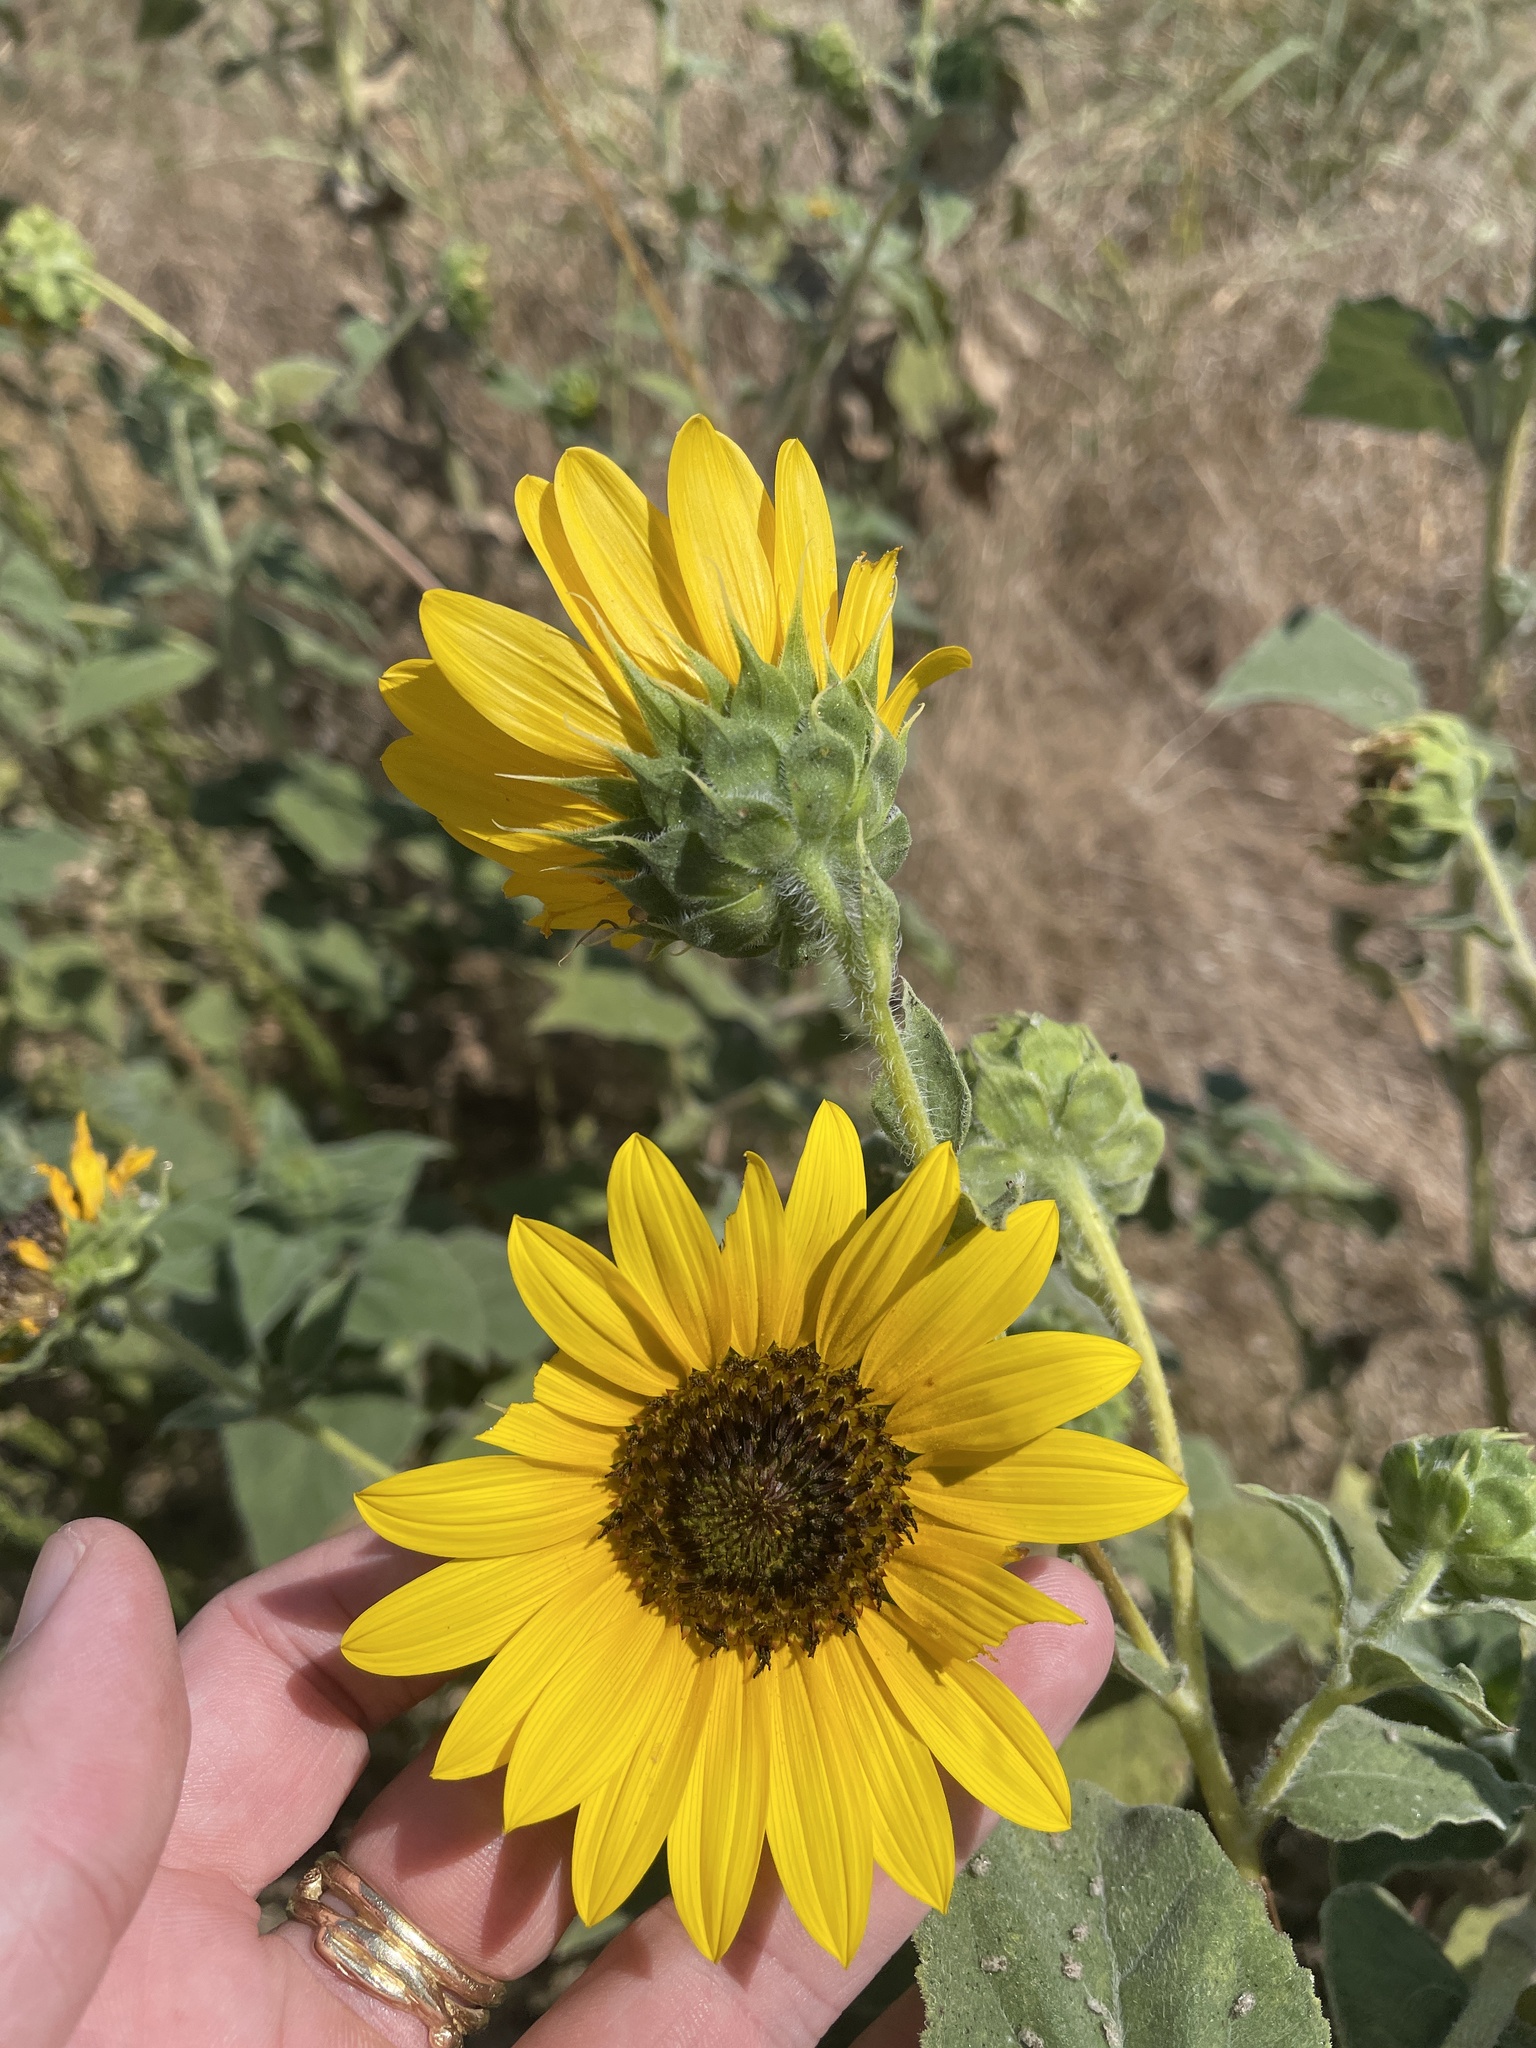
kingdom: Plantae
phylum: Tracheophyta
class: Magnoliopsida
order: Asterales
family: Asteraceae
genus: Helianthus
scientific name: Helianthus annuus
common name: Sunflower
